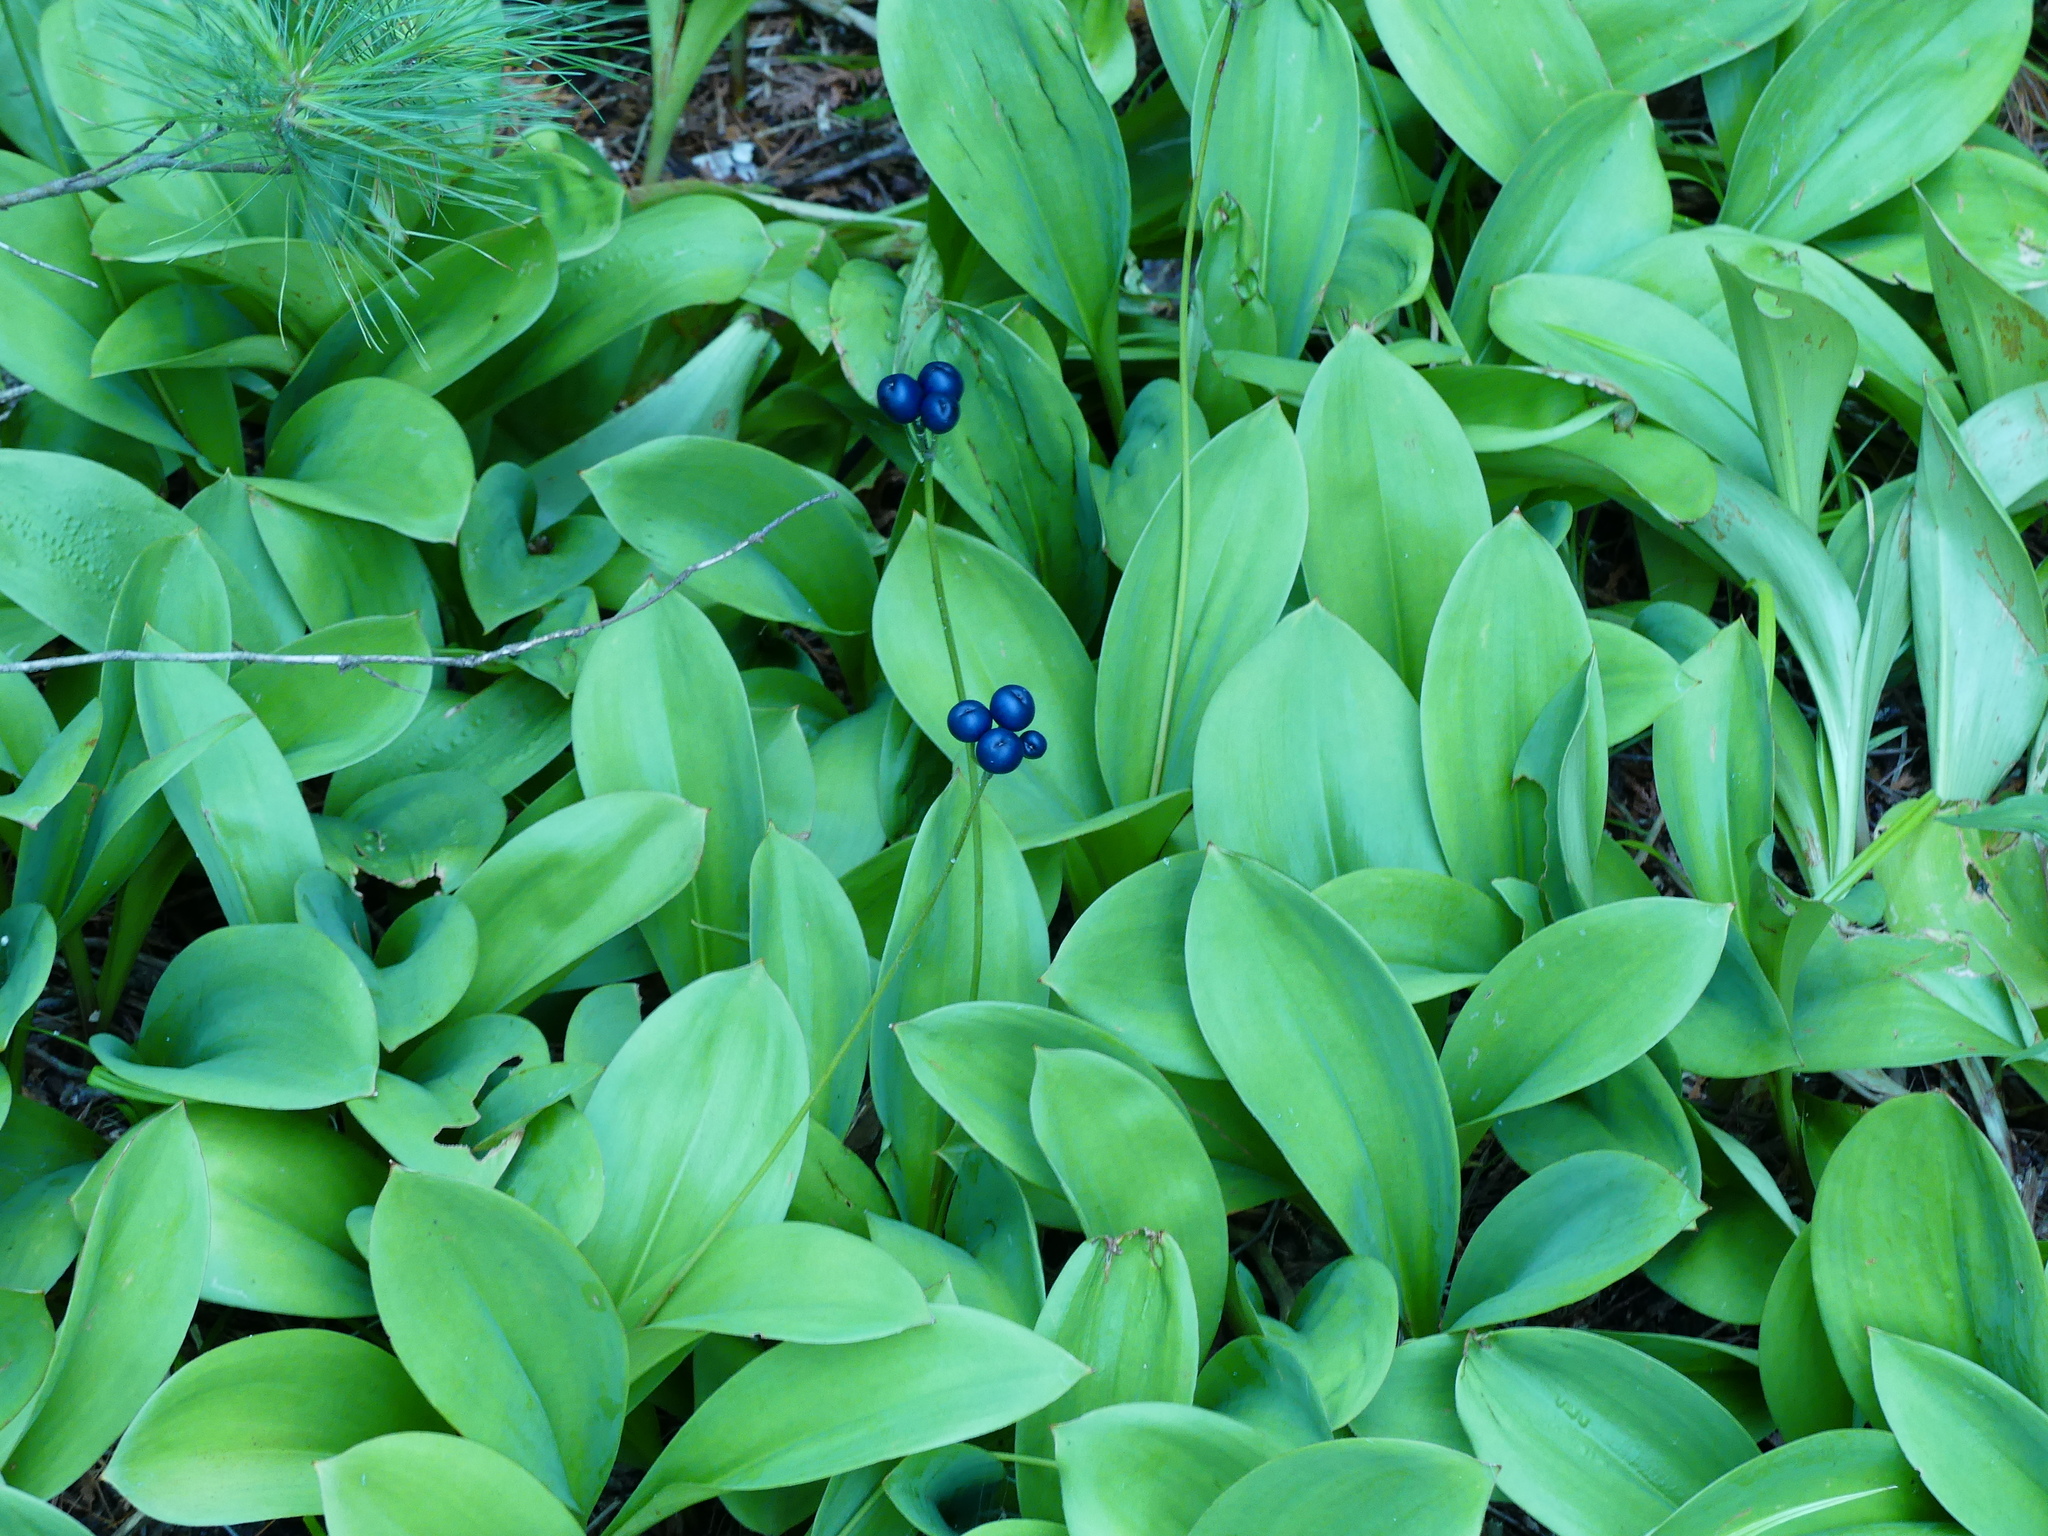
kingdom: Plantae
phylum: Tracheophyta
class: Liliopsida
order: Liliales
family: Liliaceae
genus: Clintonia
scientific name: Clintonia borealis
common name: Yellow clintonia
